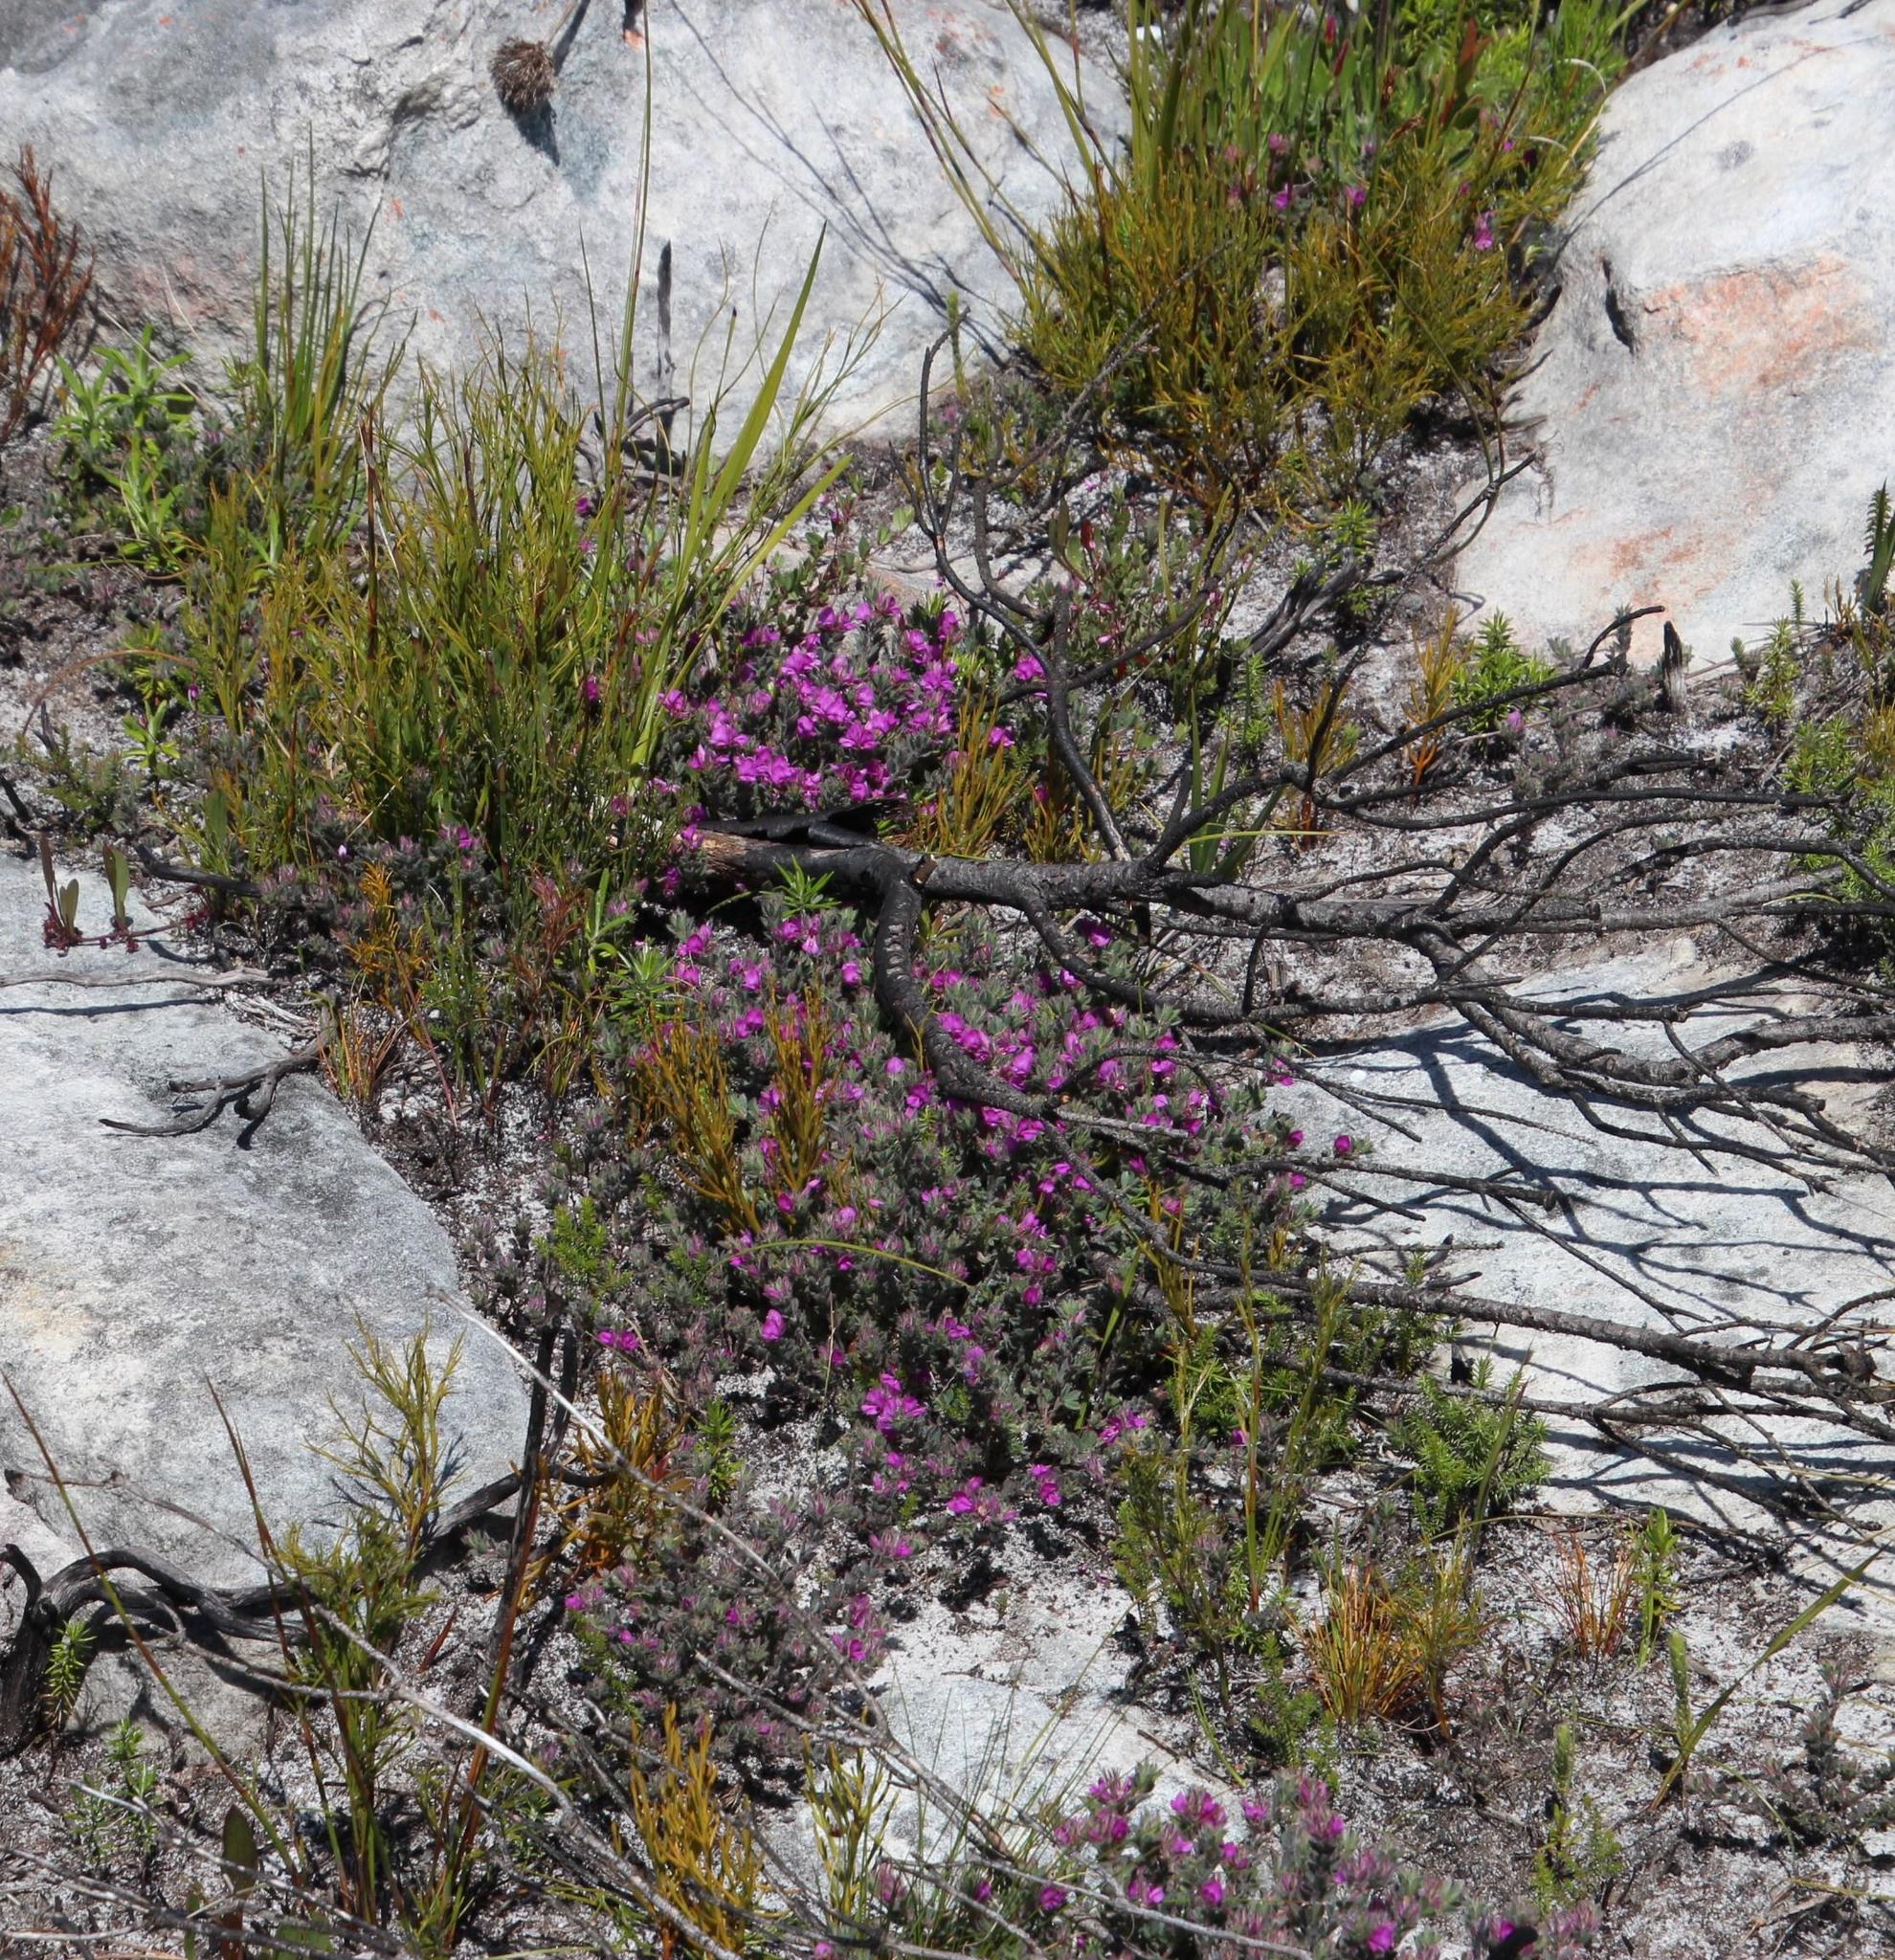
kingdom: Plantae
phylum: Tracheophyta
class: Magnoliopsida
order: Fabales
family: Fabaceae
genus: Indigofera
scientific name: Indigofera glomerata
